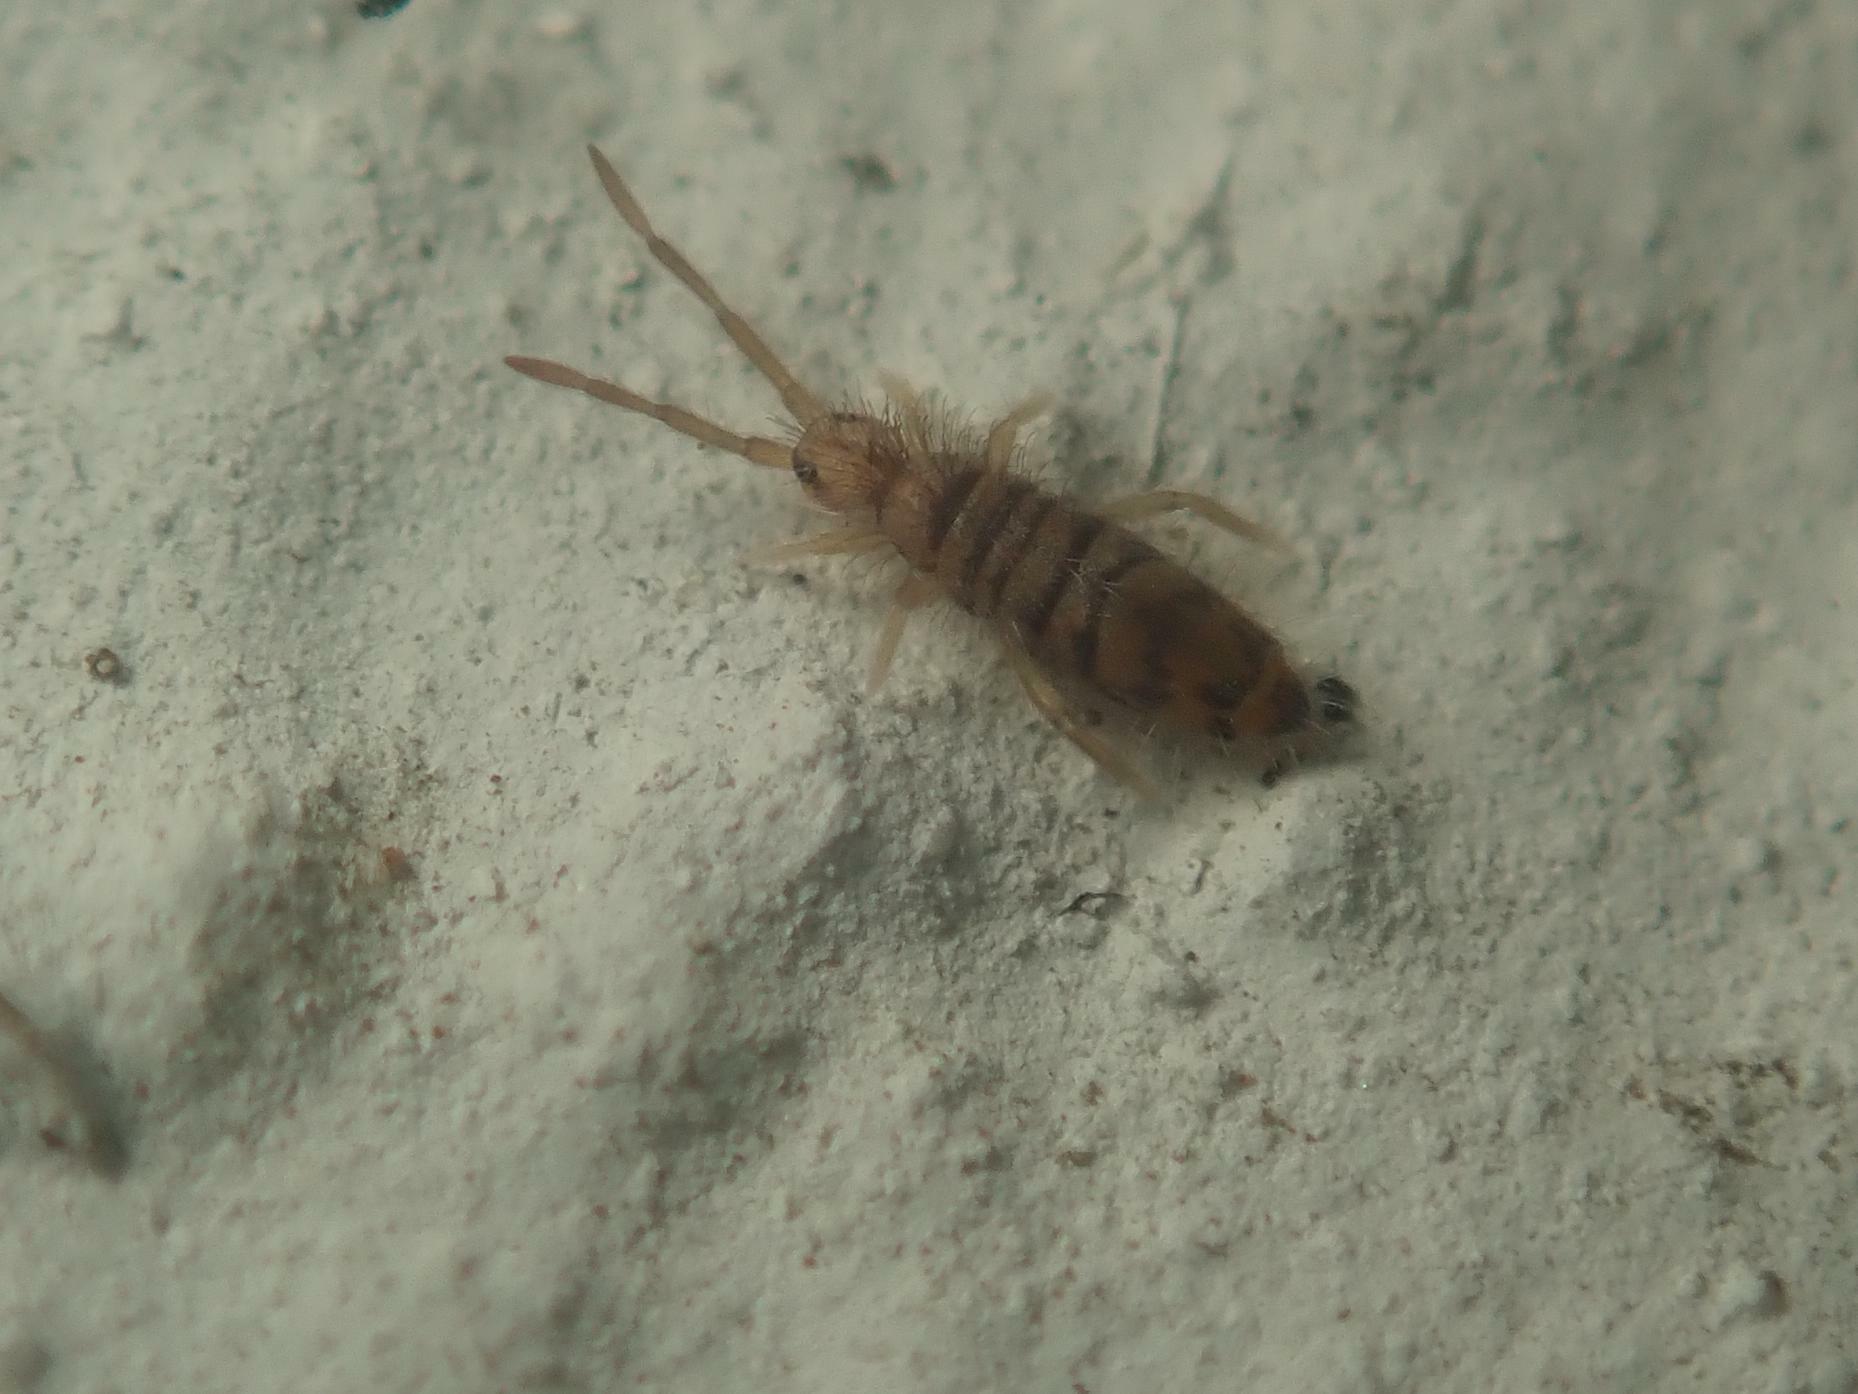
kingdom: Animalia
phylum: Arthropoda
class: Collembola
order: Entomobryomorpha
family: Entomobryidae
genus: Entomobrya
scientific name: Entomobrya multifasciata
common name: Springtail
